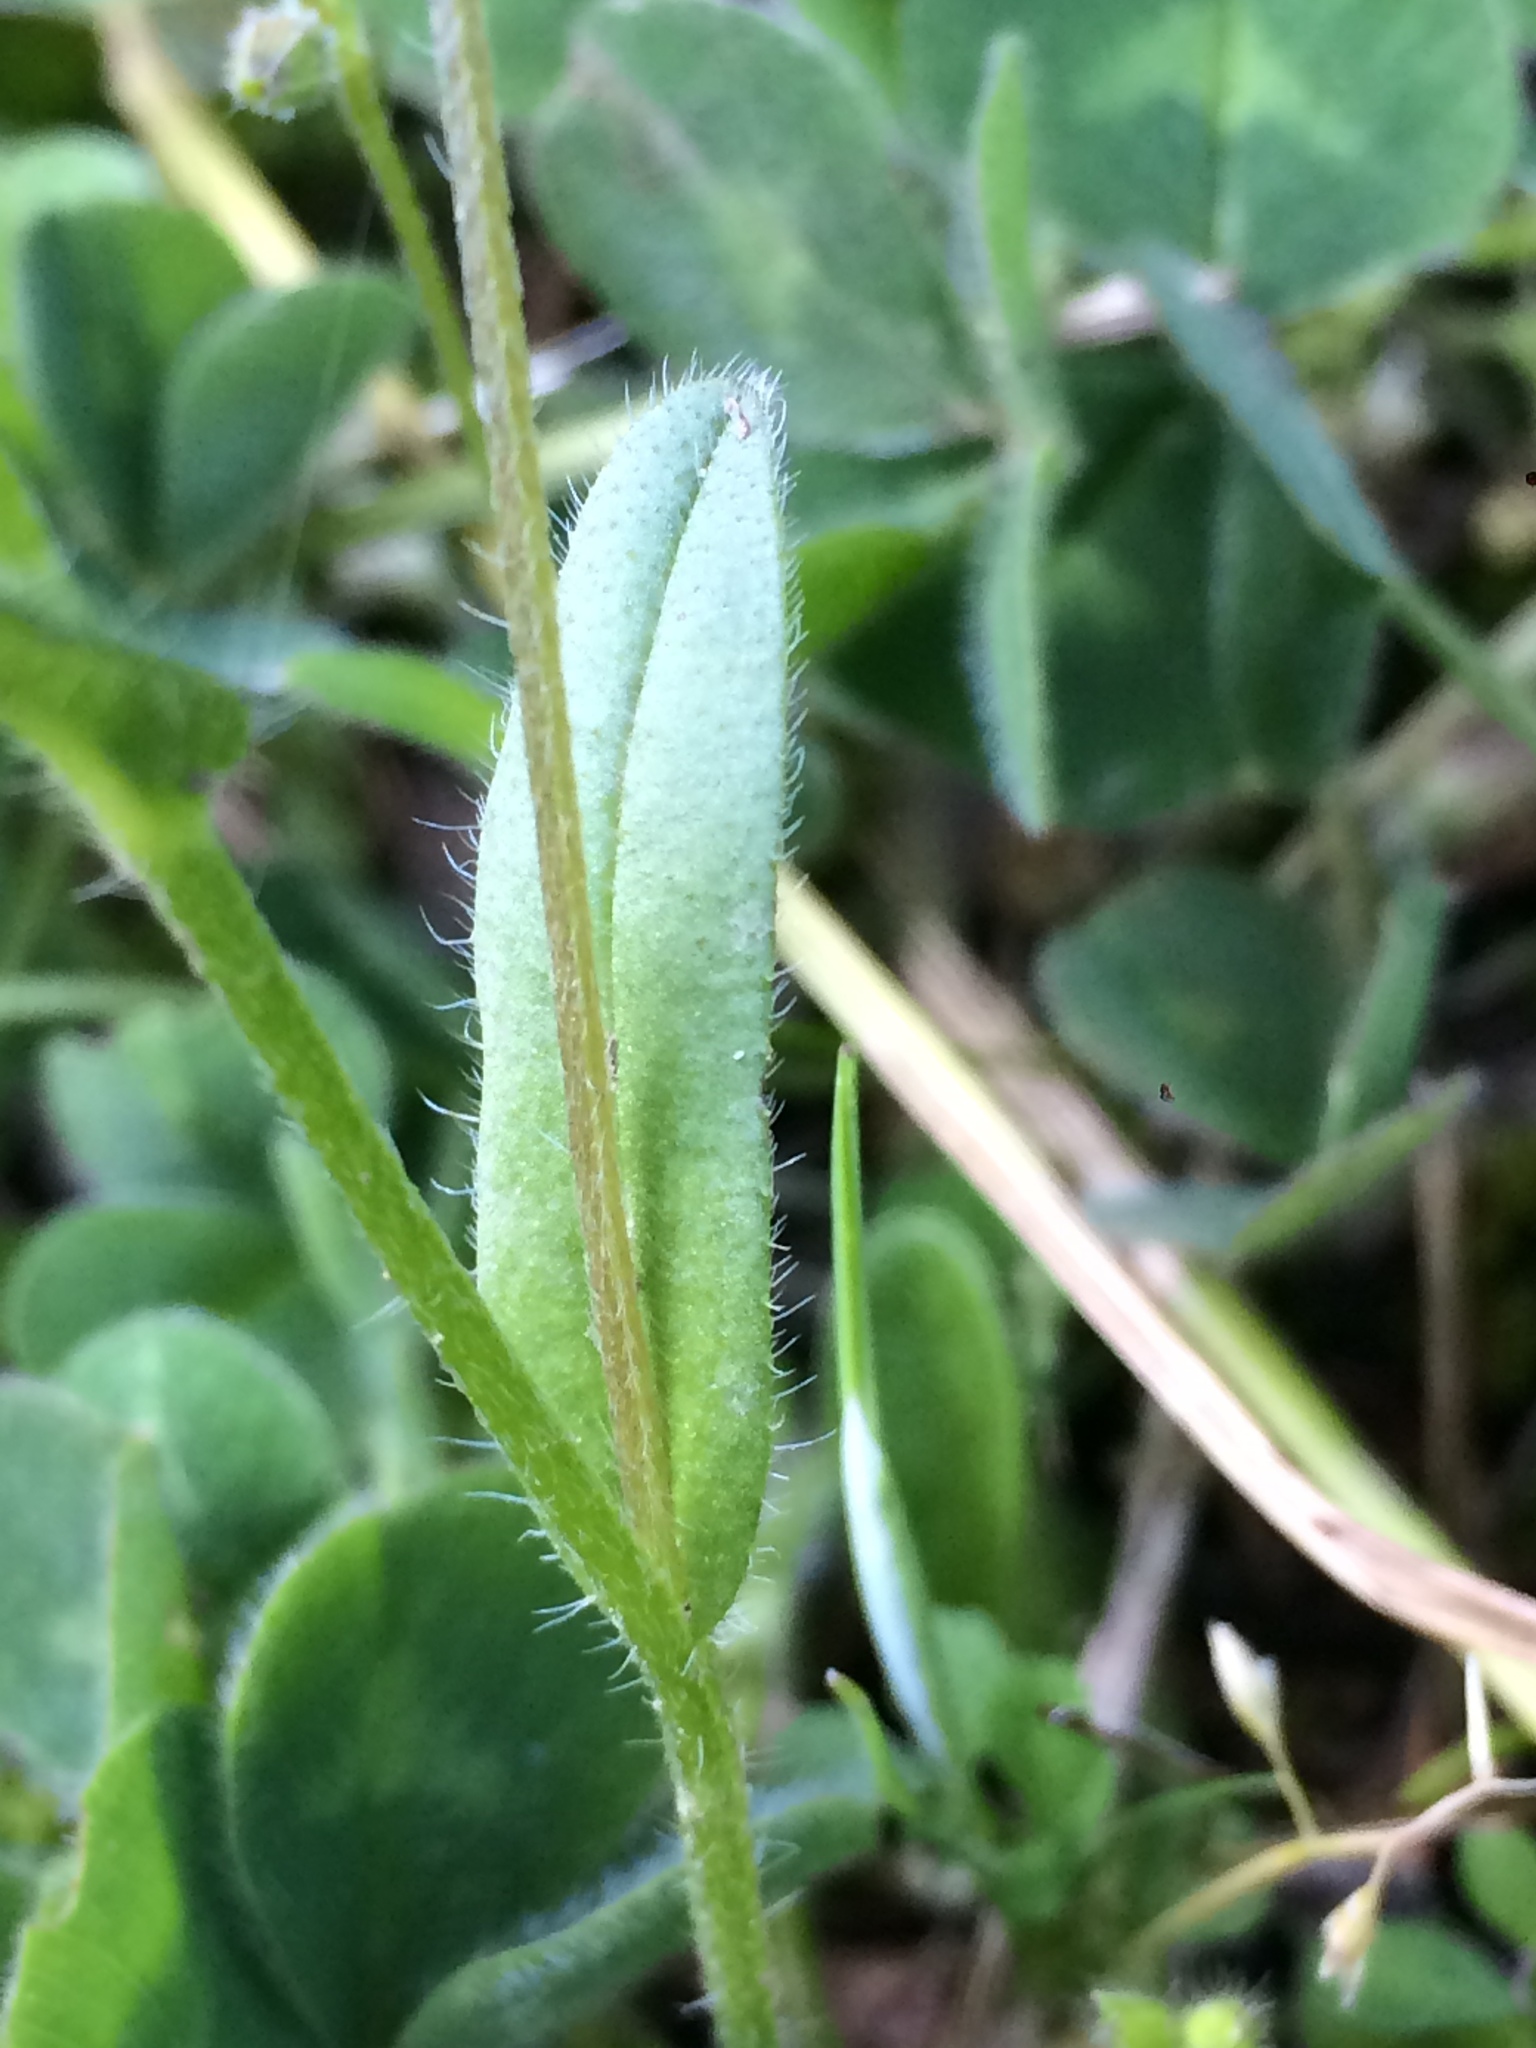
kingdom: Plantae
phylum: Tracheophyta
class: Magnoliopsida
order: Boraginales
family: Boraginaceae
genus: Myosotis
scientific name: Myosotis discolor
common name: Changing forget-me-not
